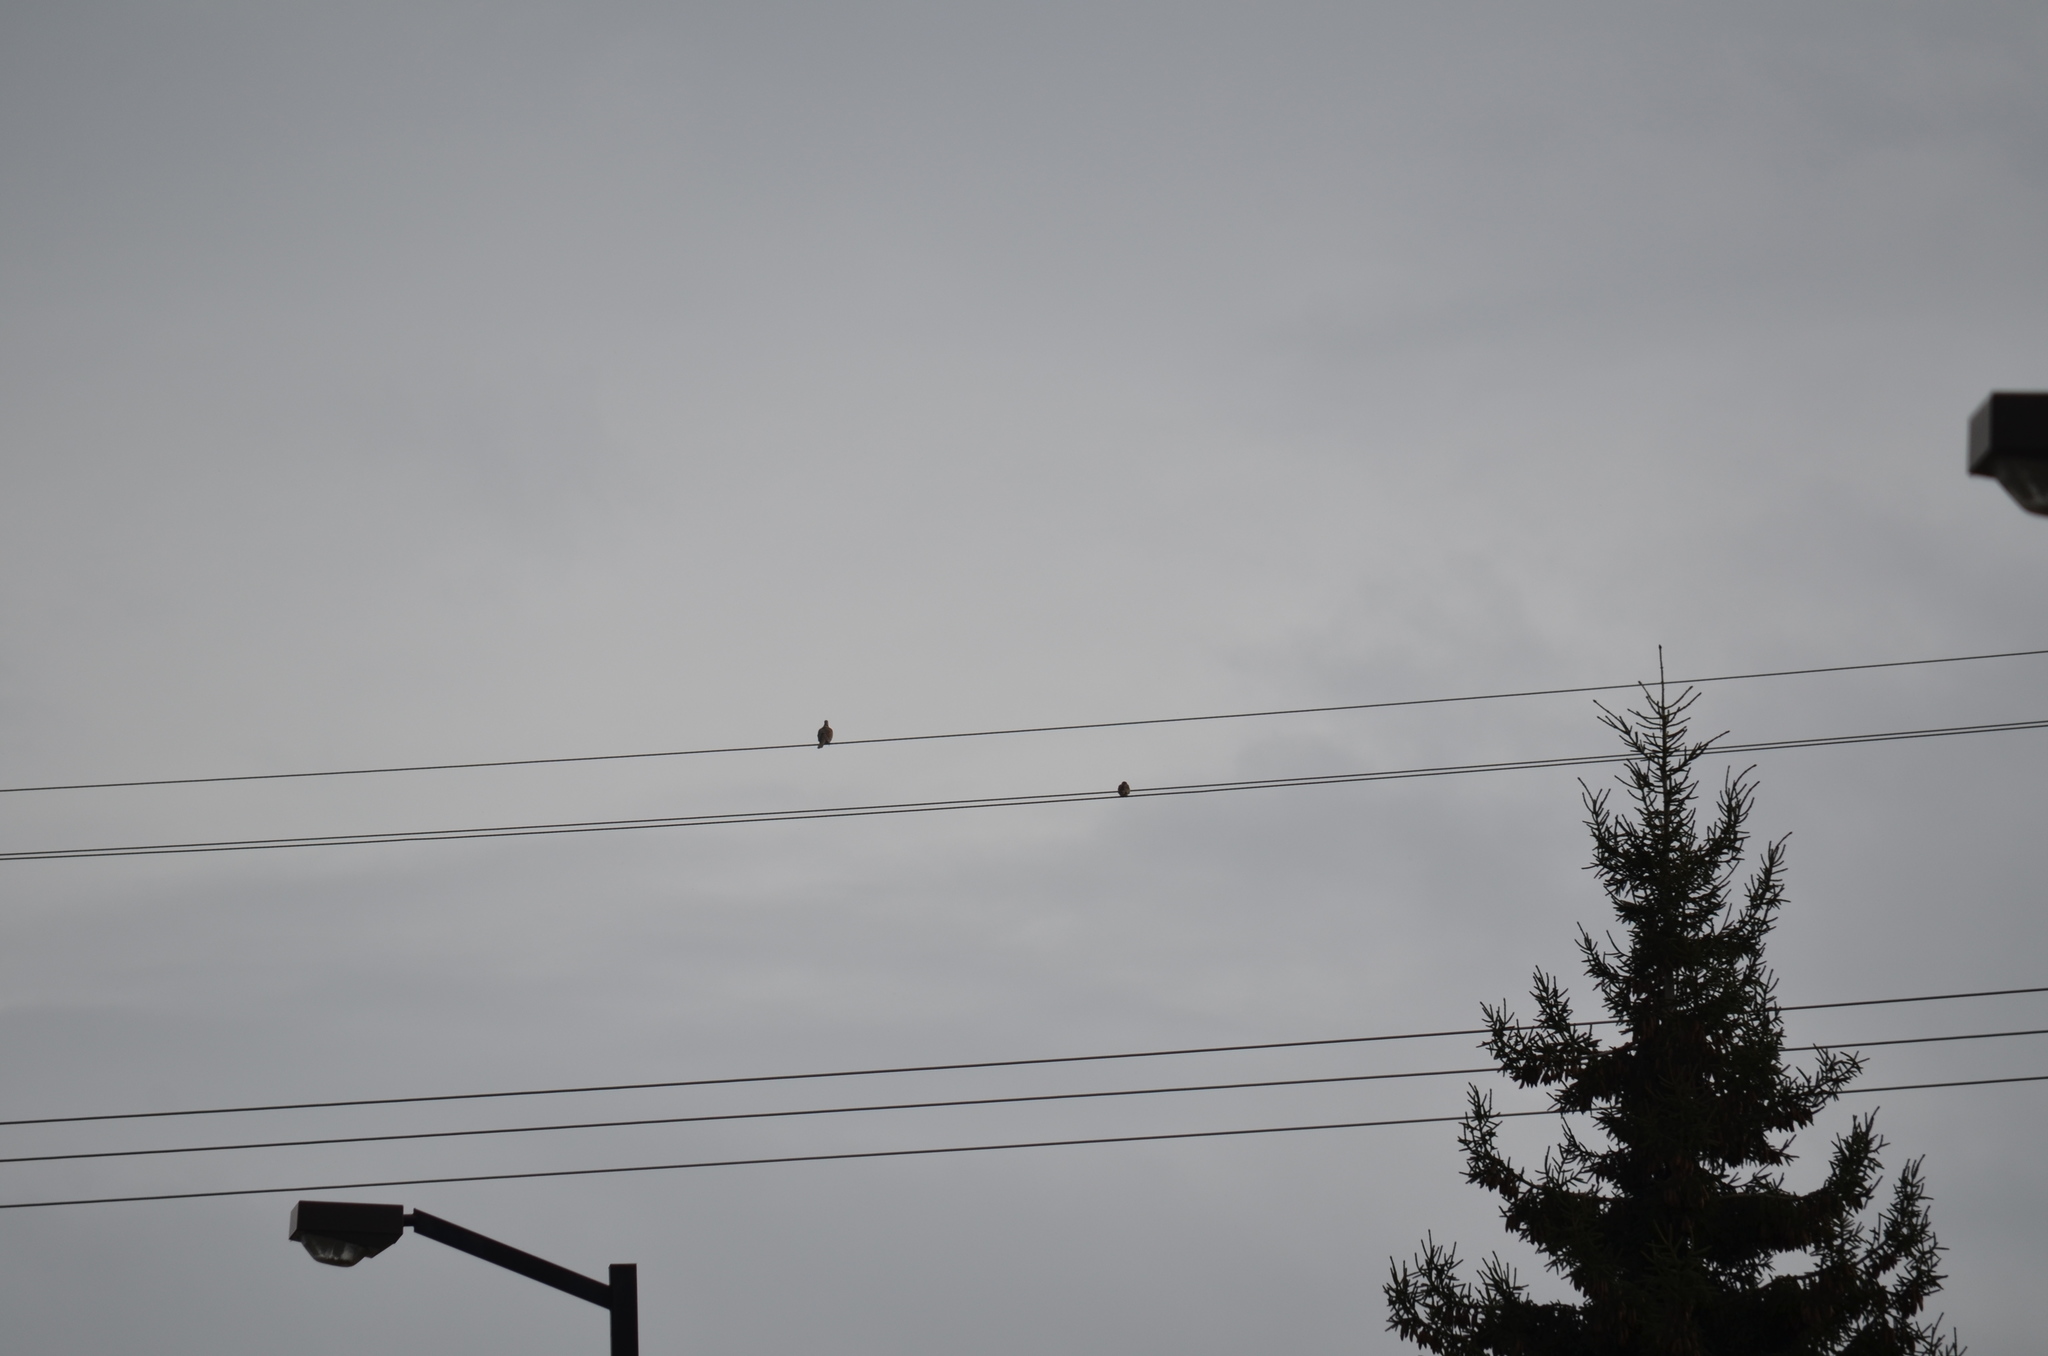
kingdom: Animalia
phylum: Chordata
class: Aves
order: Columbiformes
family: Columbidae
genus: Streptopelia
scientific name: Streptopelia decaocto
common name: Eurasian collared dove
